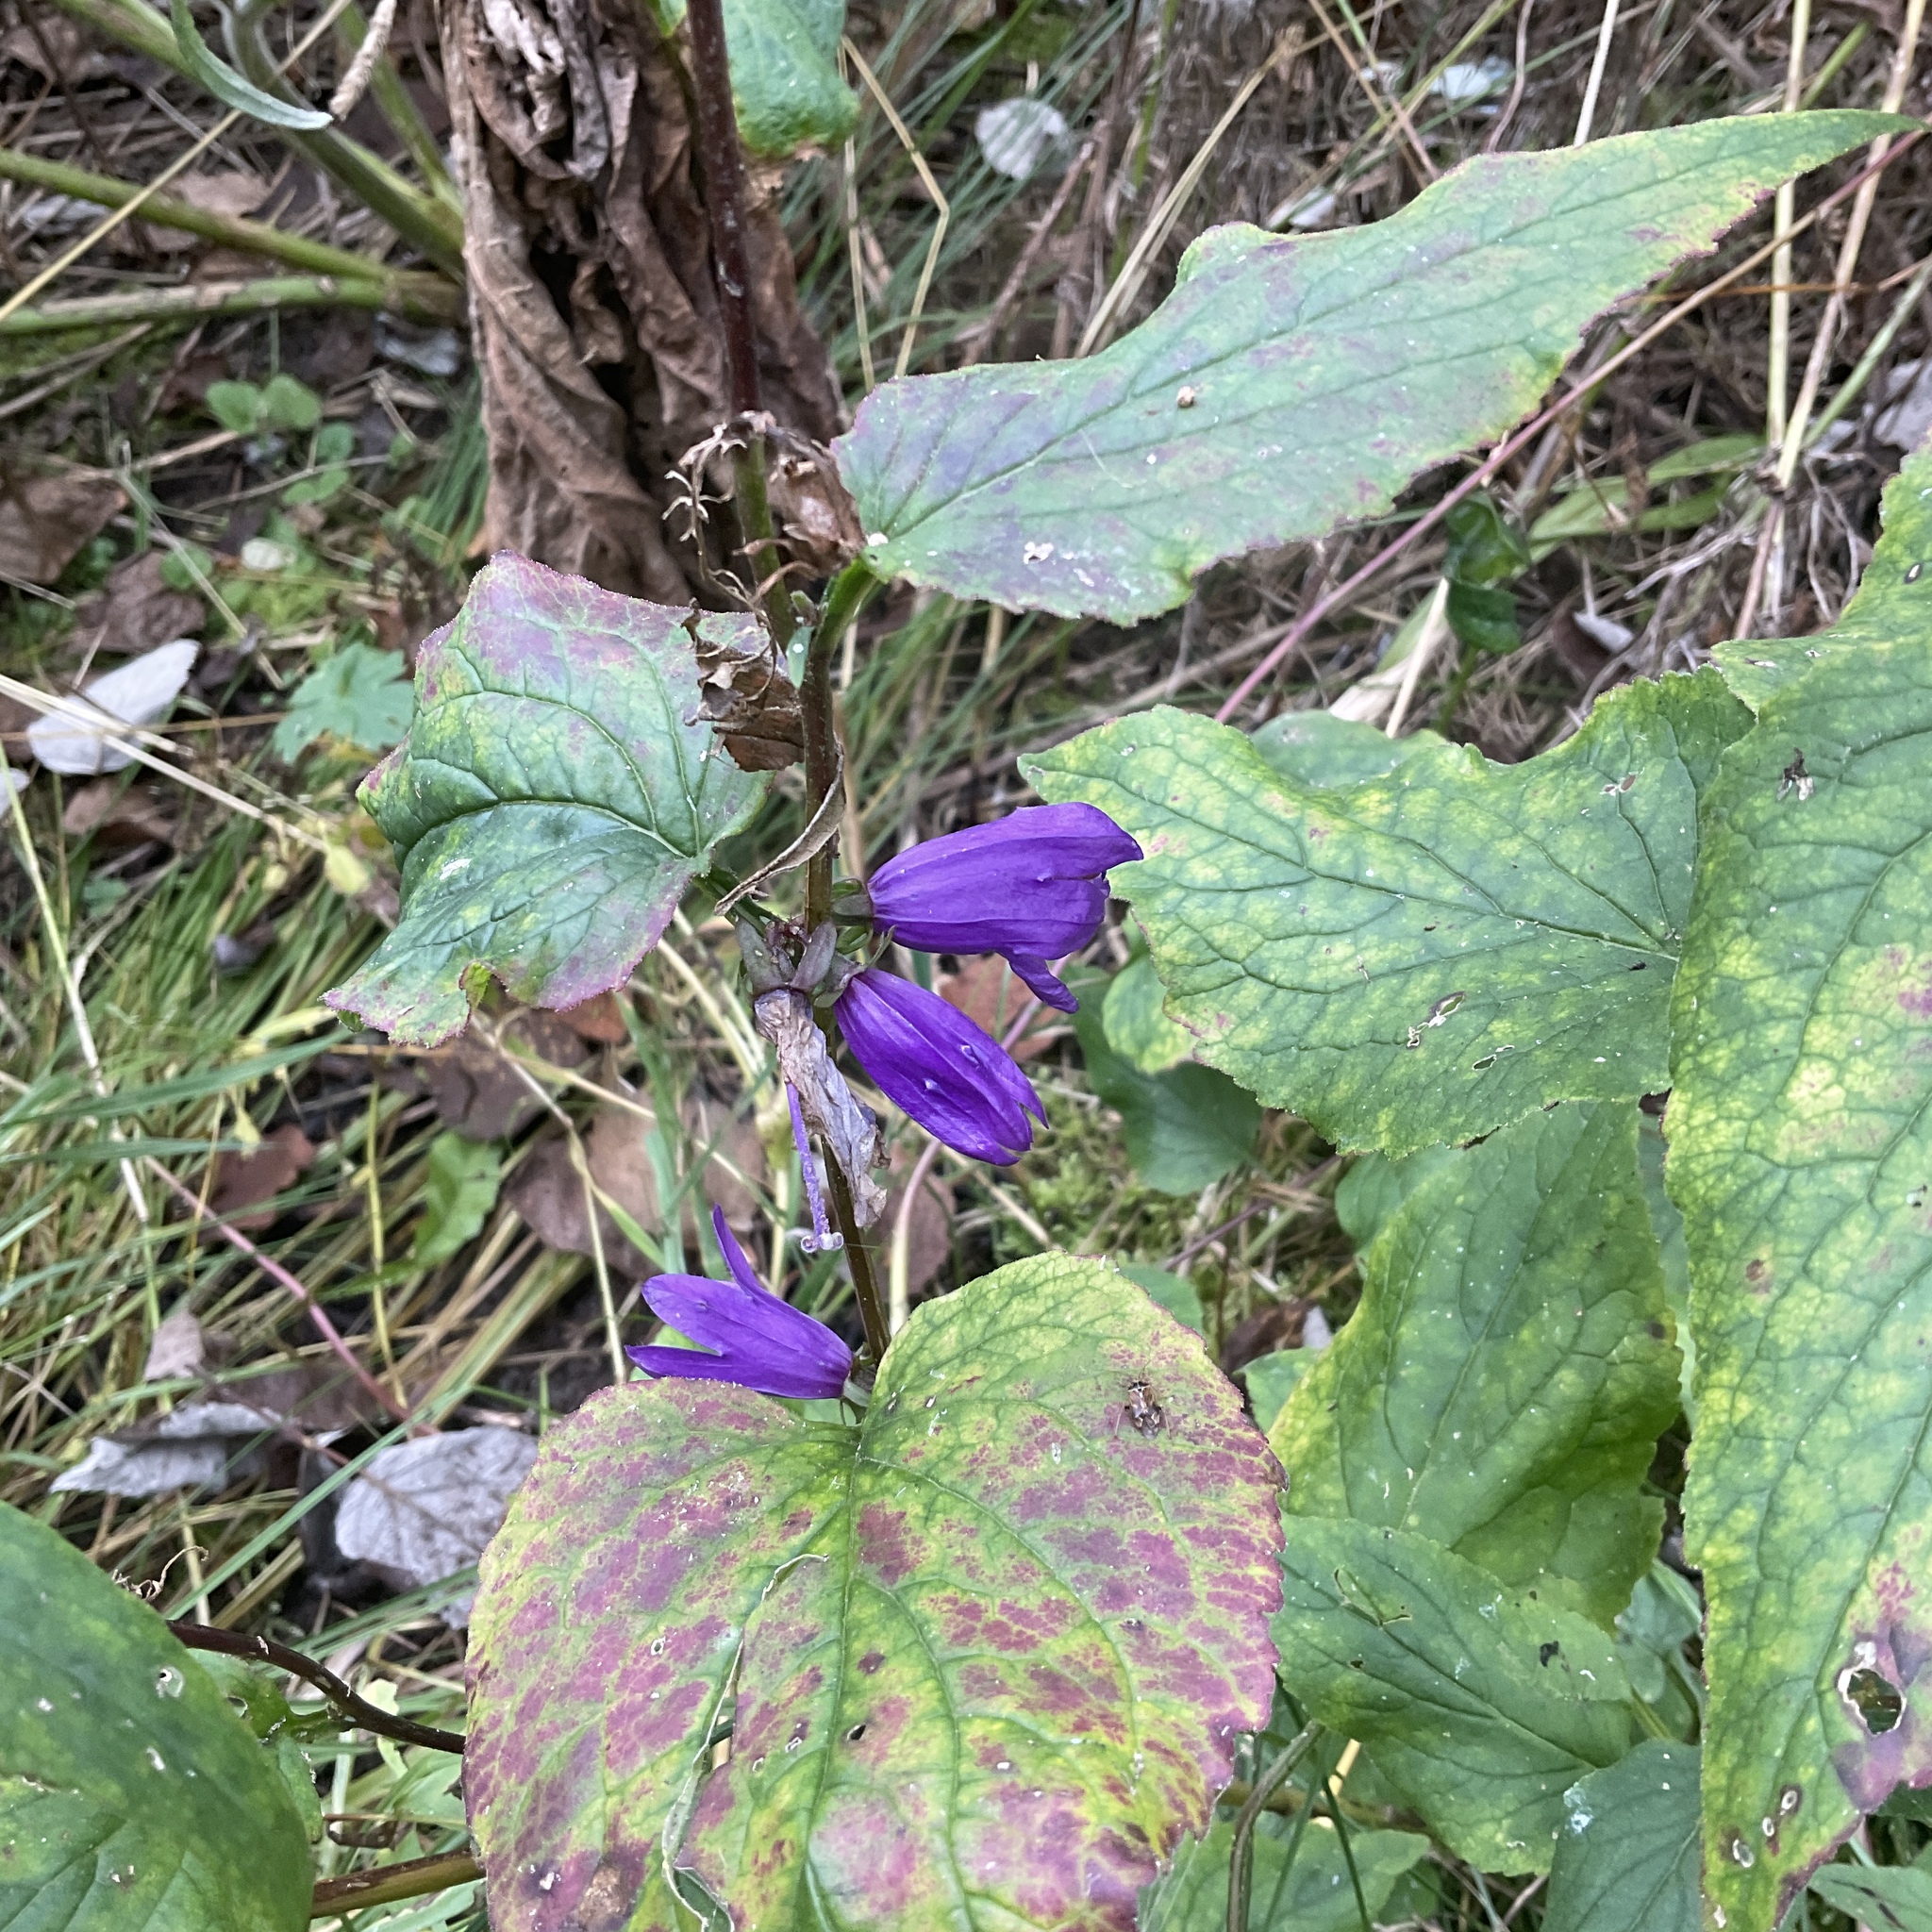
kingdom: Plantae
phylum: Tracheophyta
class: Magnoliopsida
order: Asterales
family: Campanulaceae
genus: Campanula
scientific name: Campanula rapunculoides
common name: Creeping bellflower
